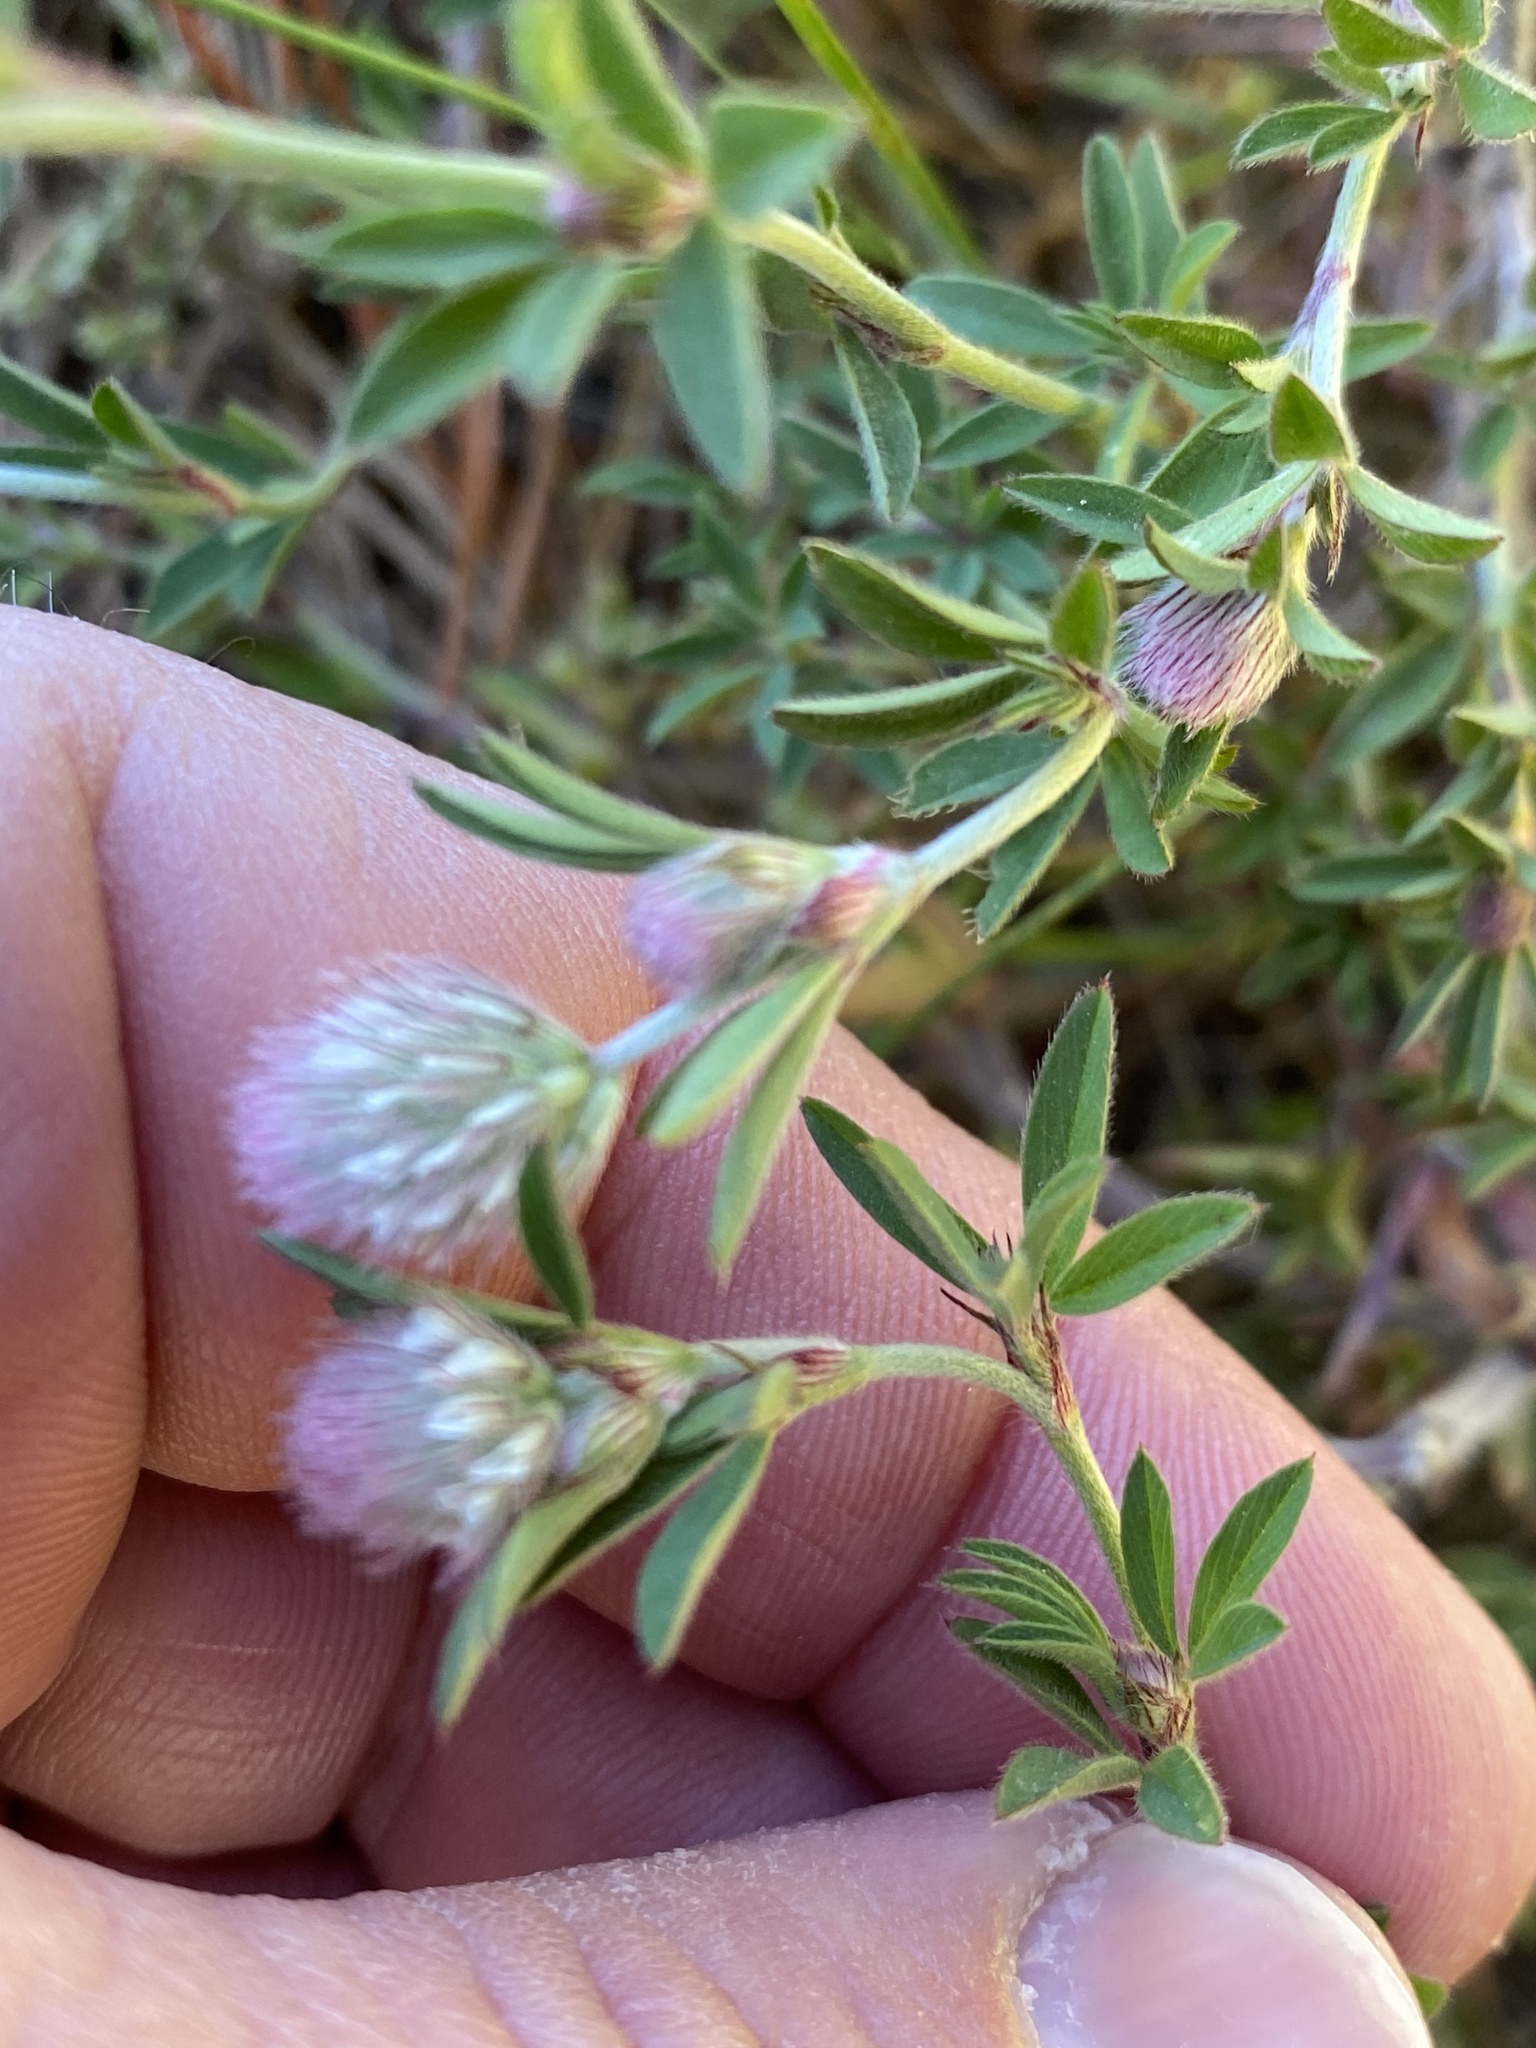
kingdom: Plantae
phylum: Tracheophyta
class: Magnoliopsida
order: Fabales
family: Fabaceae
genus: Trifolium
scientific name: Trifolium arvense
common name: Hare's-foot clover
